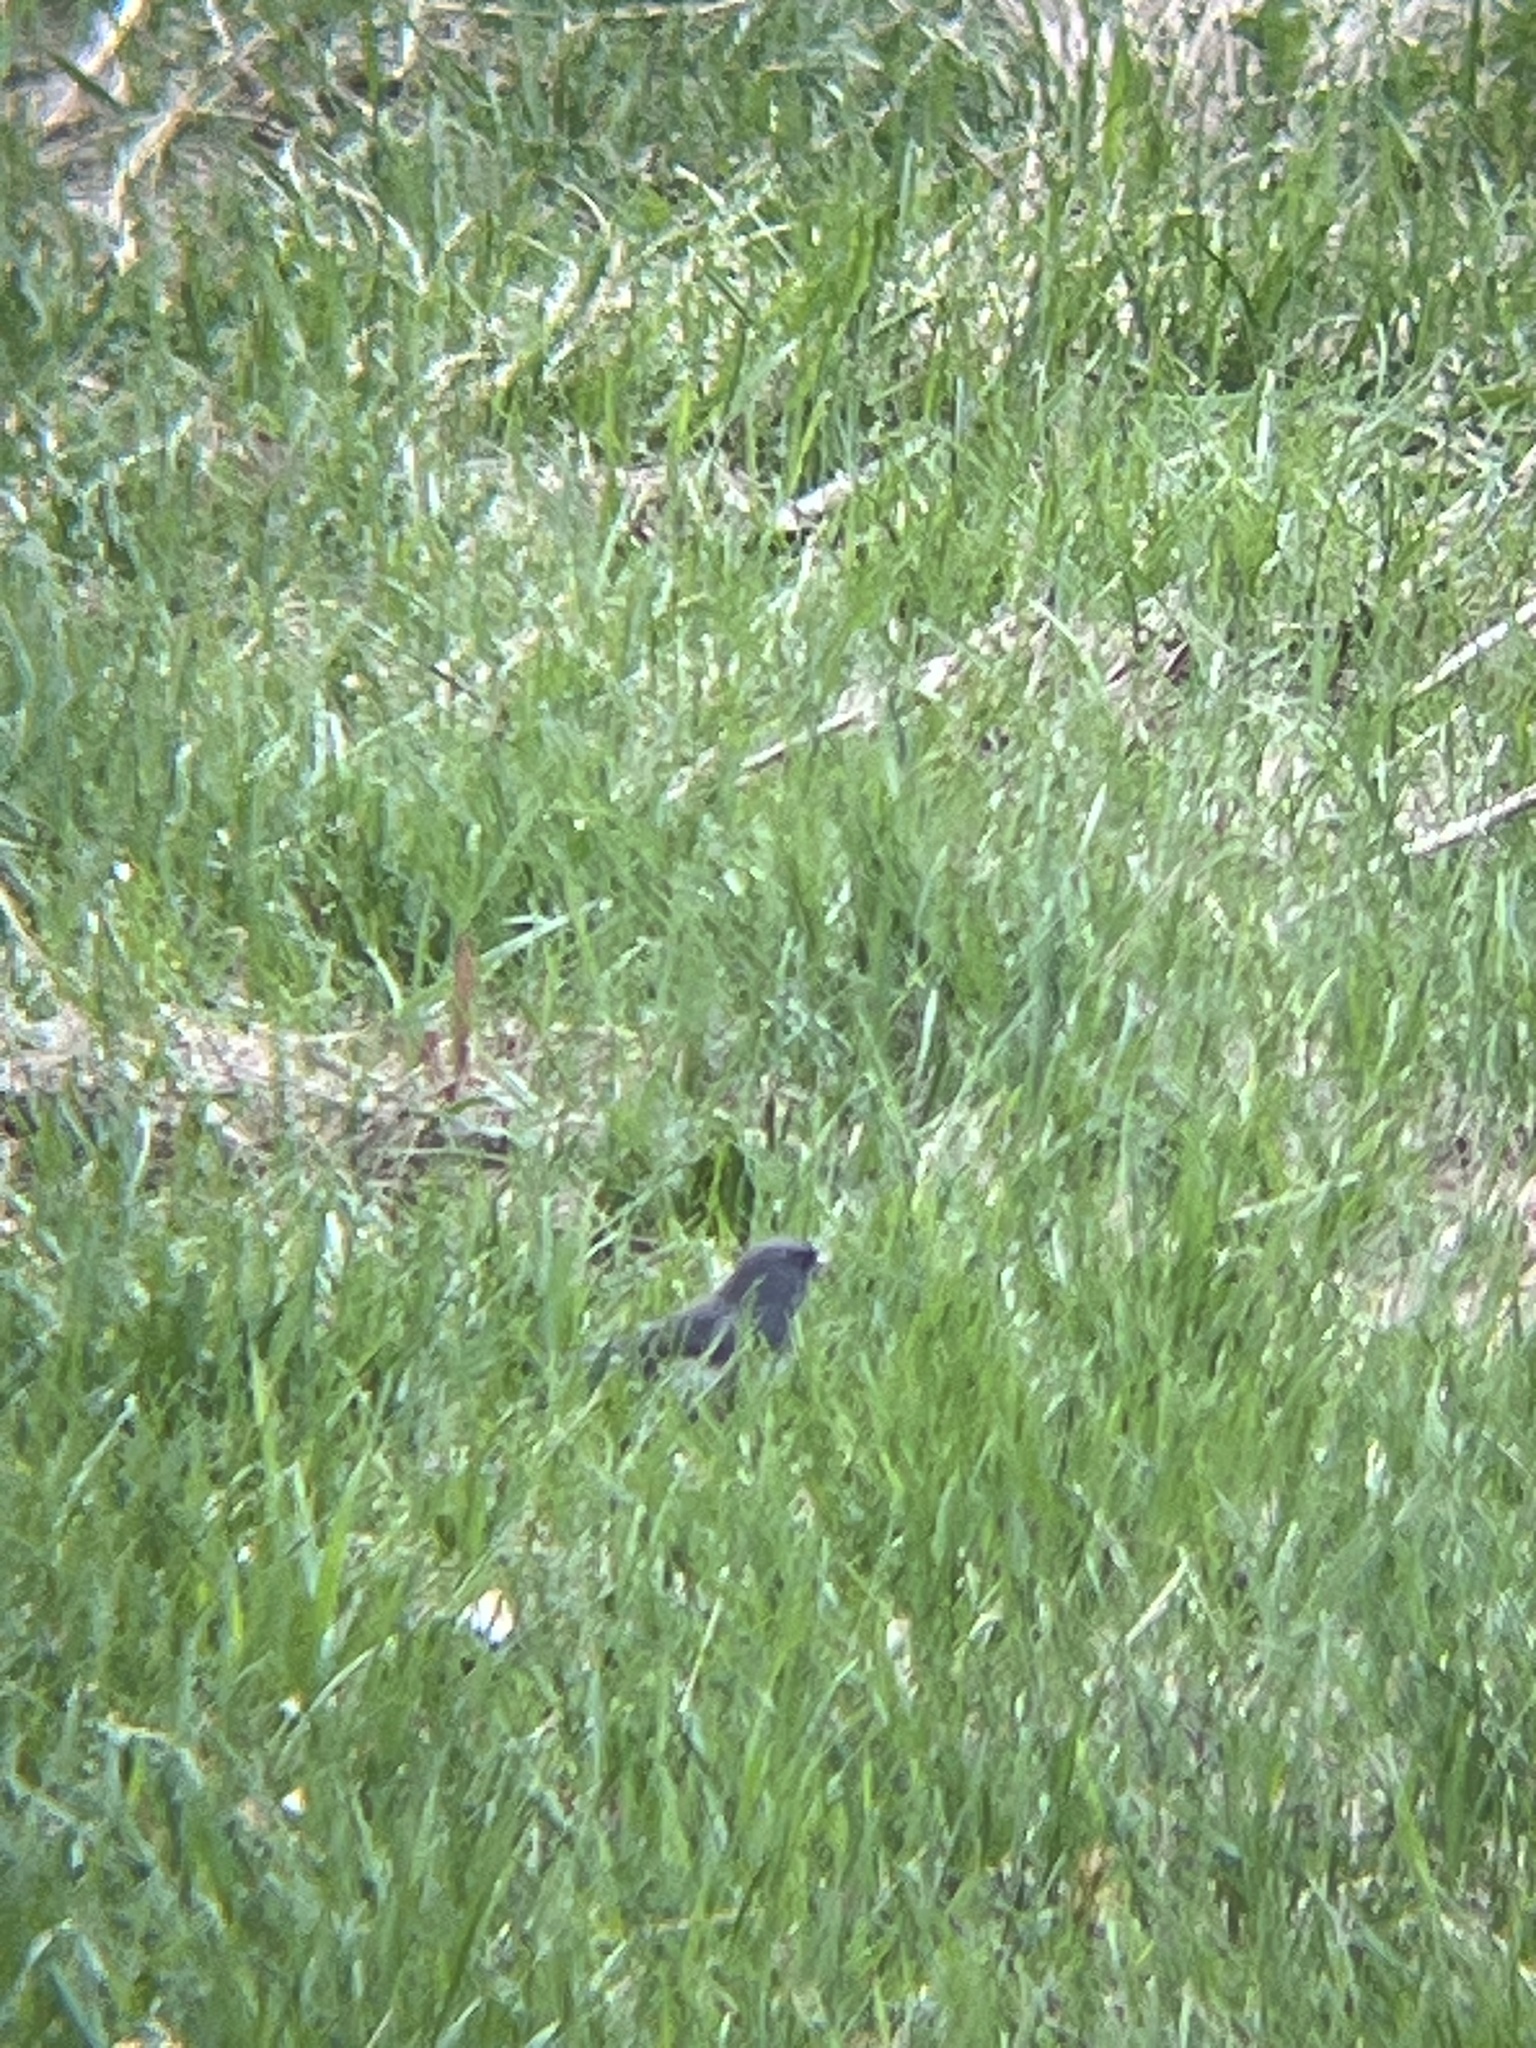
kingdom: Animalia
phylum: Chordata
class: Aves
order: Passeriformes
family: Passerellidae
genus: Junco
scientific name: Junco hyemalis
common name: Dark-eyed junco
